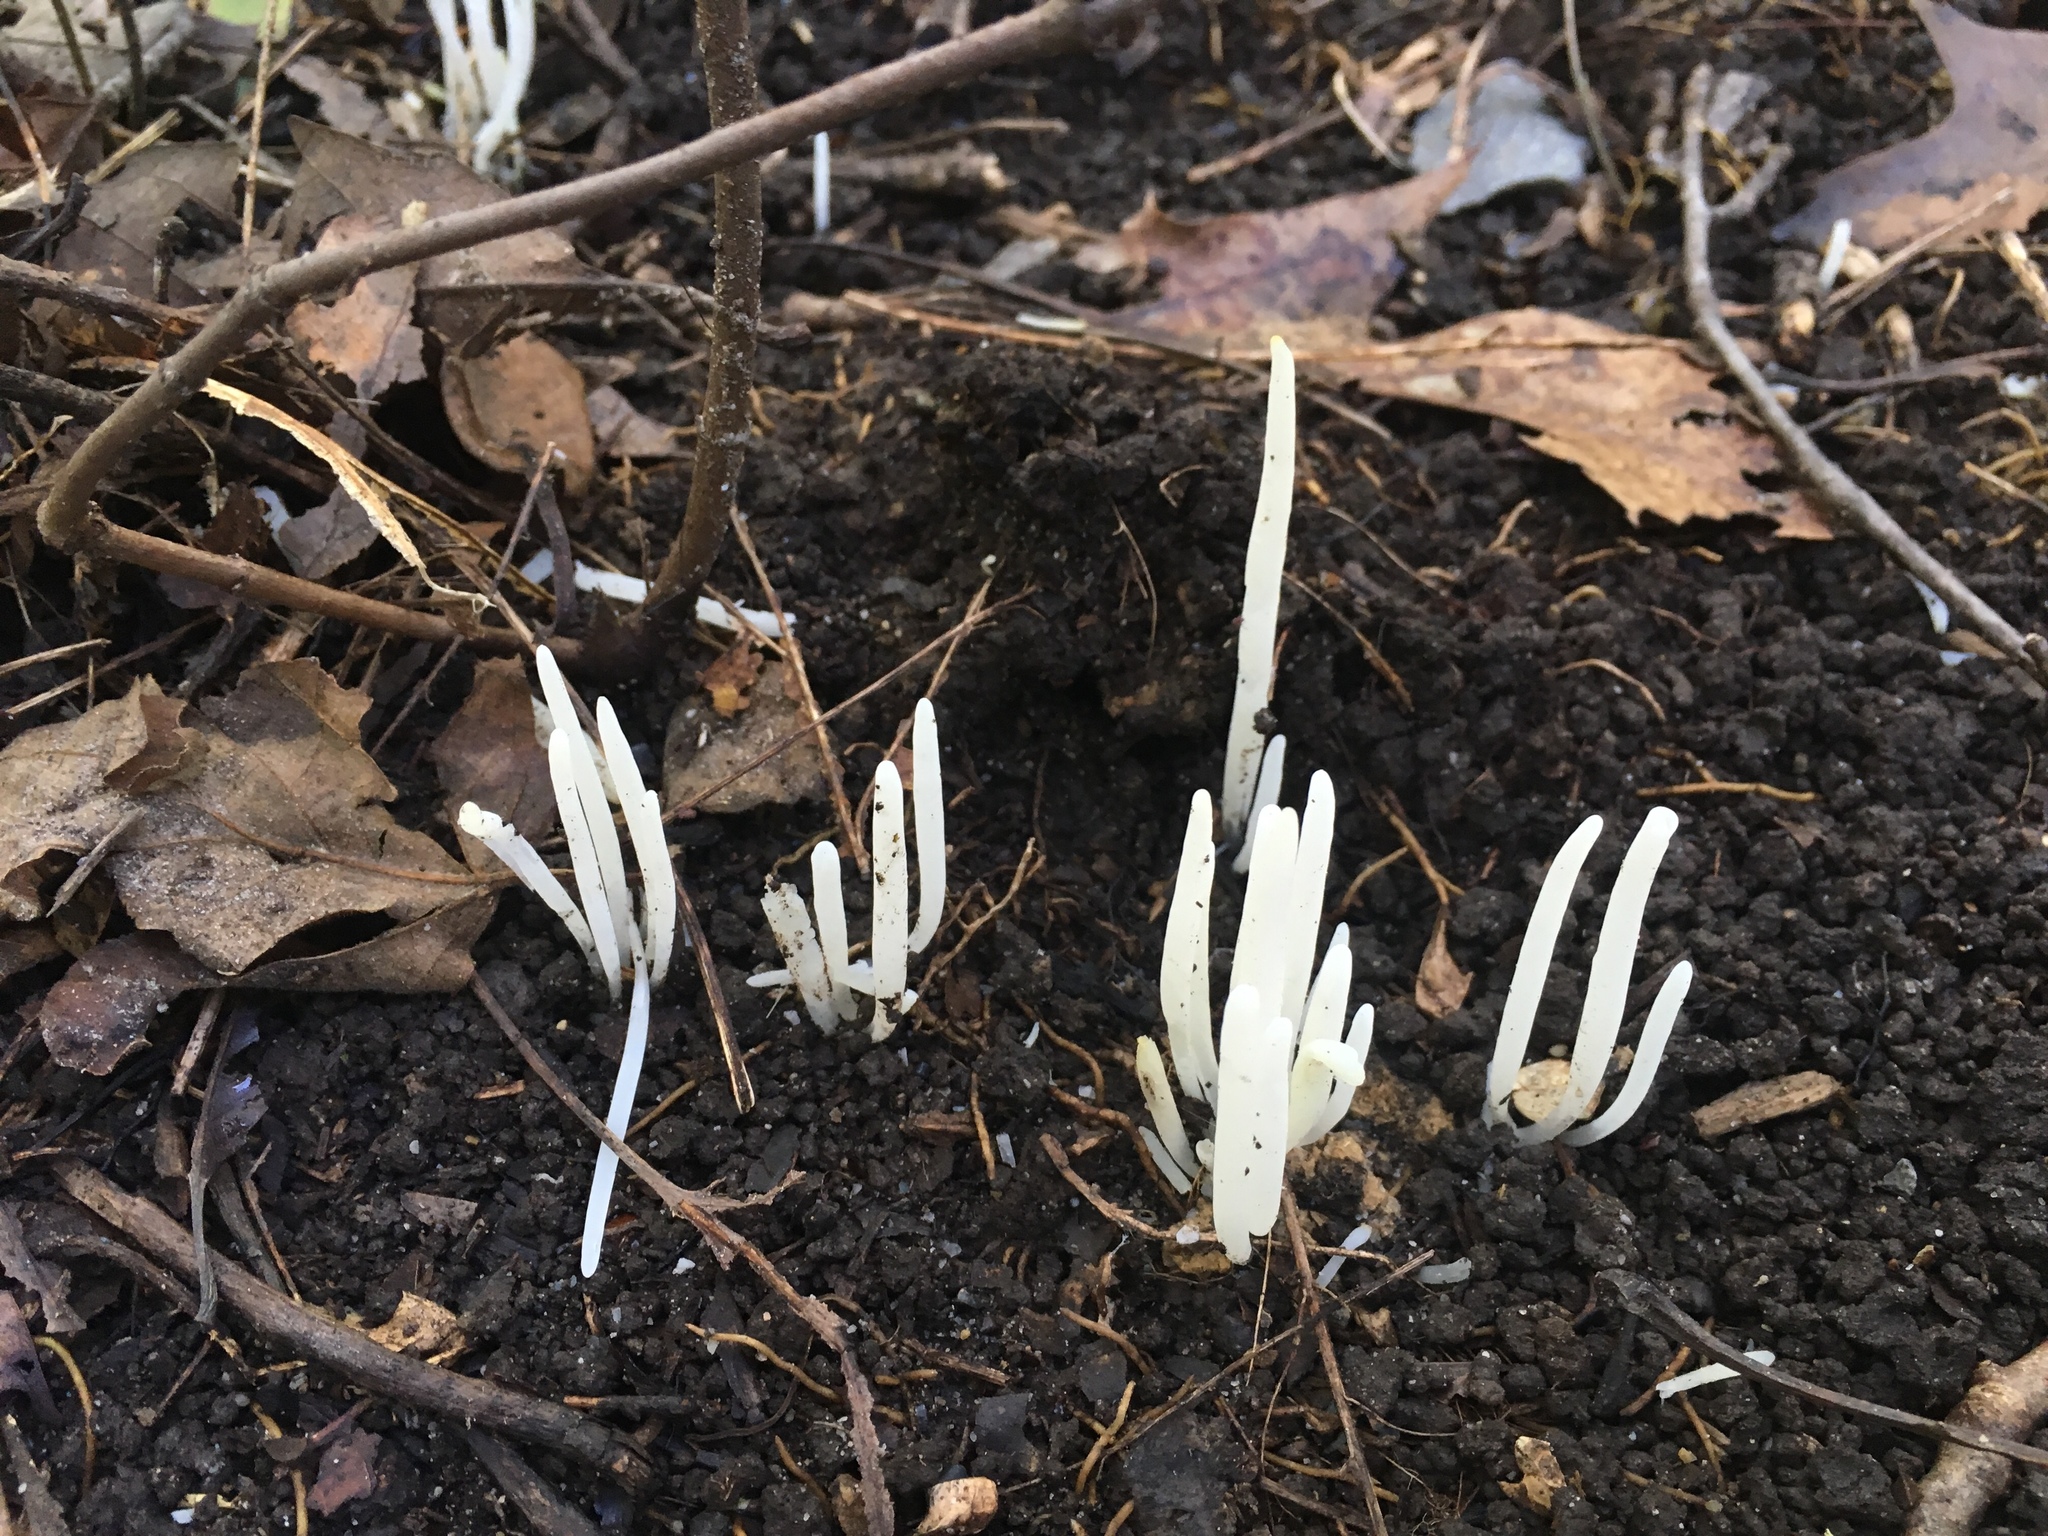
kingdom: Fungi
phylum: Basidiomycota
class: Agaricomycetes
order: Agaricales
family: Clavariaceae
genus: Clavaria
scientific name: Clavaria fragilis
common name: White spindles
